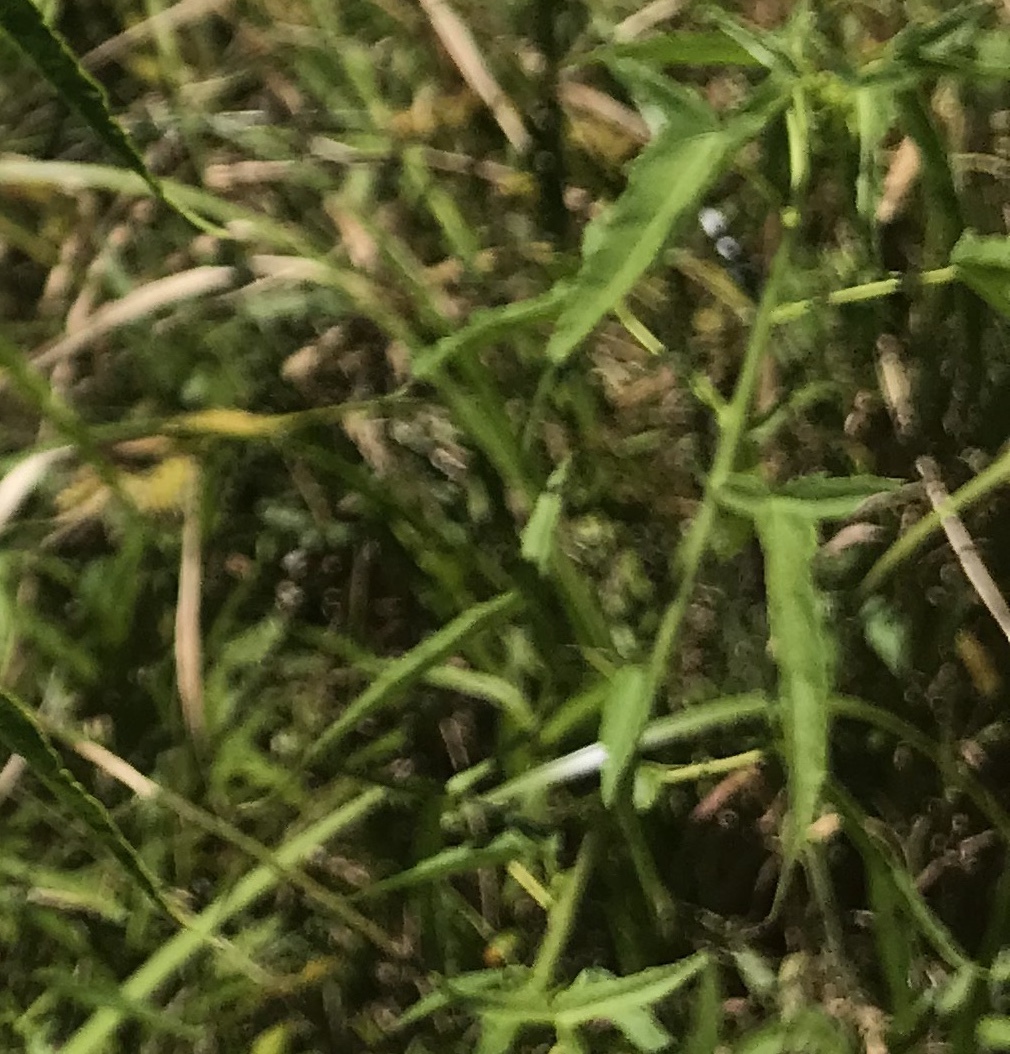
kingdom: Plantae
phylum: Tracheophyta
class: Magnoliopsida
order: Malvales
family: Malvaceae
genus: Hibiscus
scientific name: Hibiscus laevis
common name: Scarlet rose-mallow
